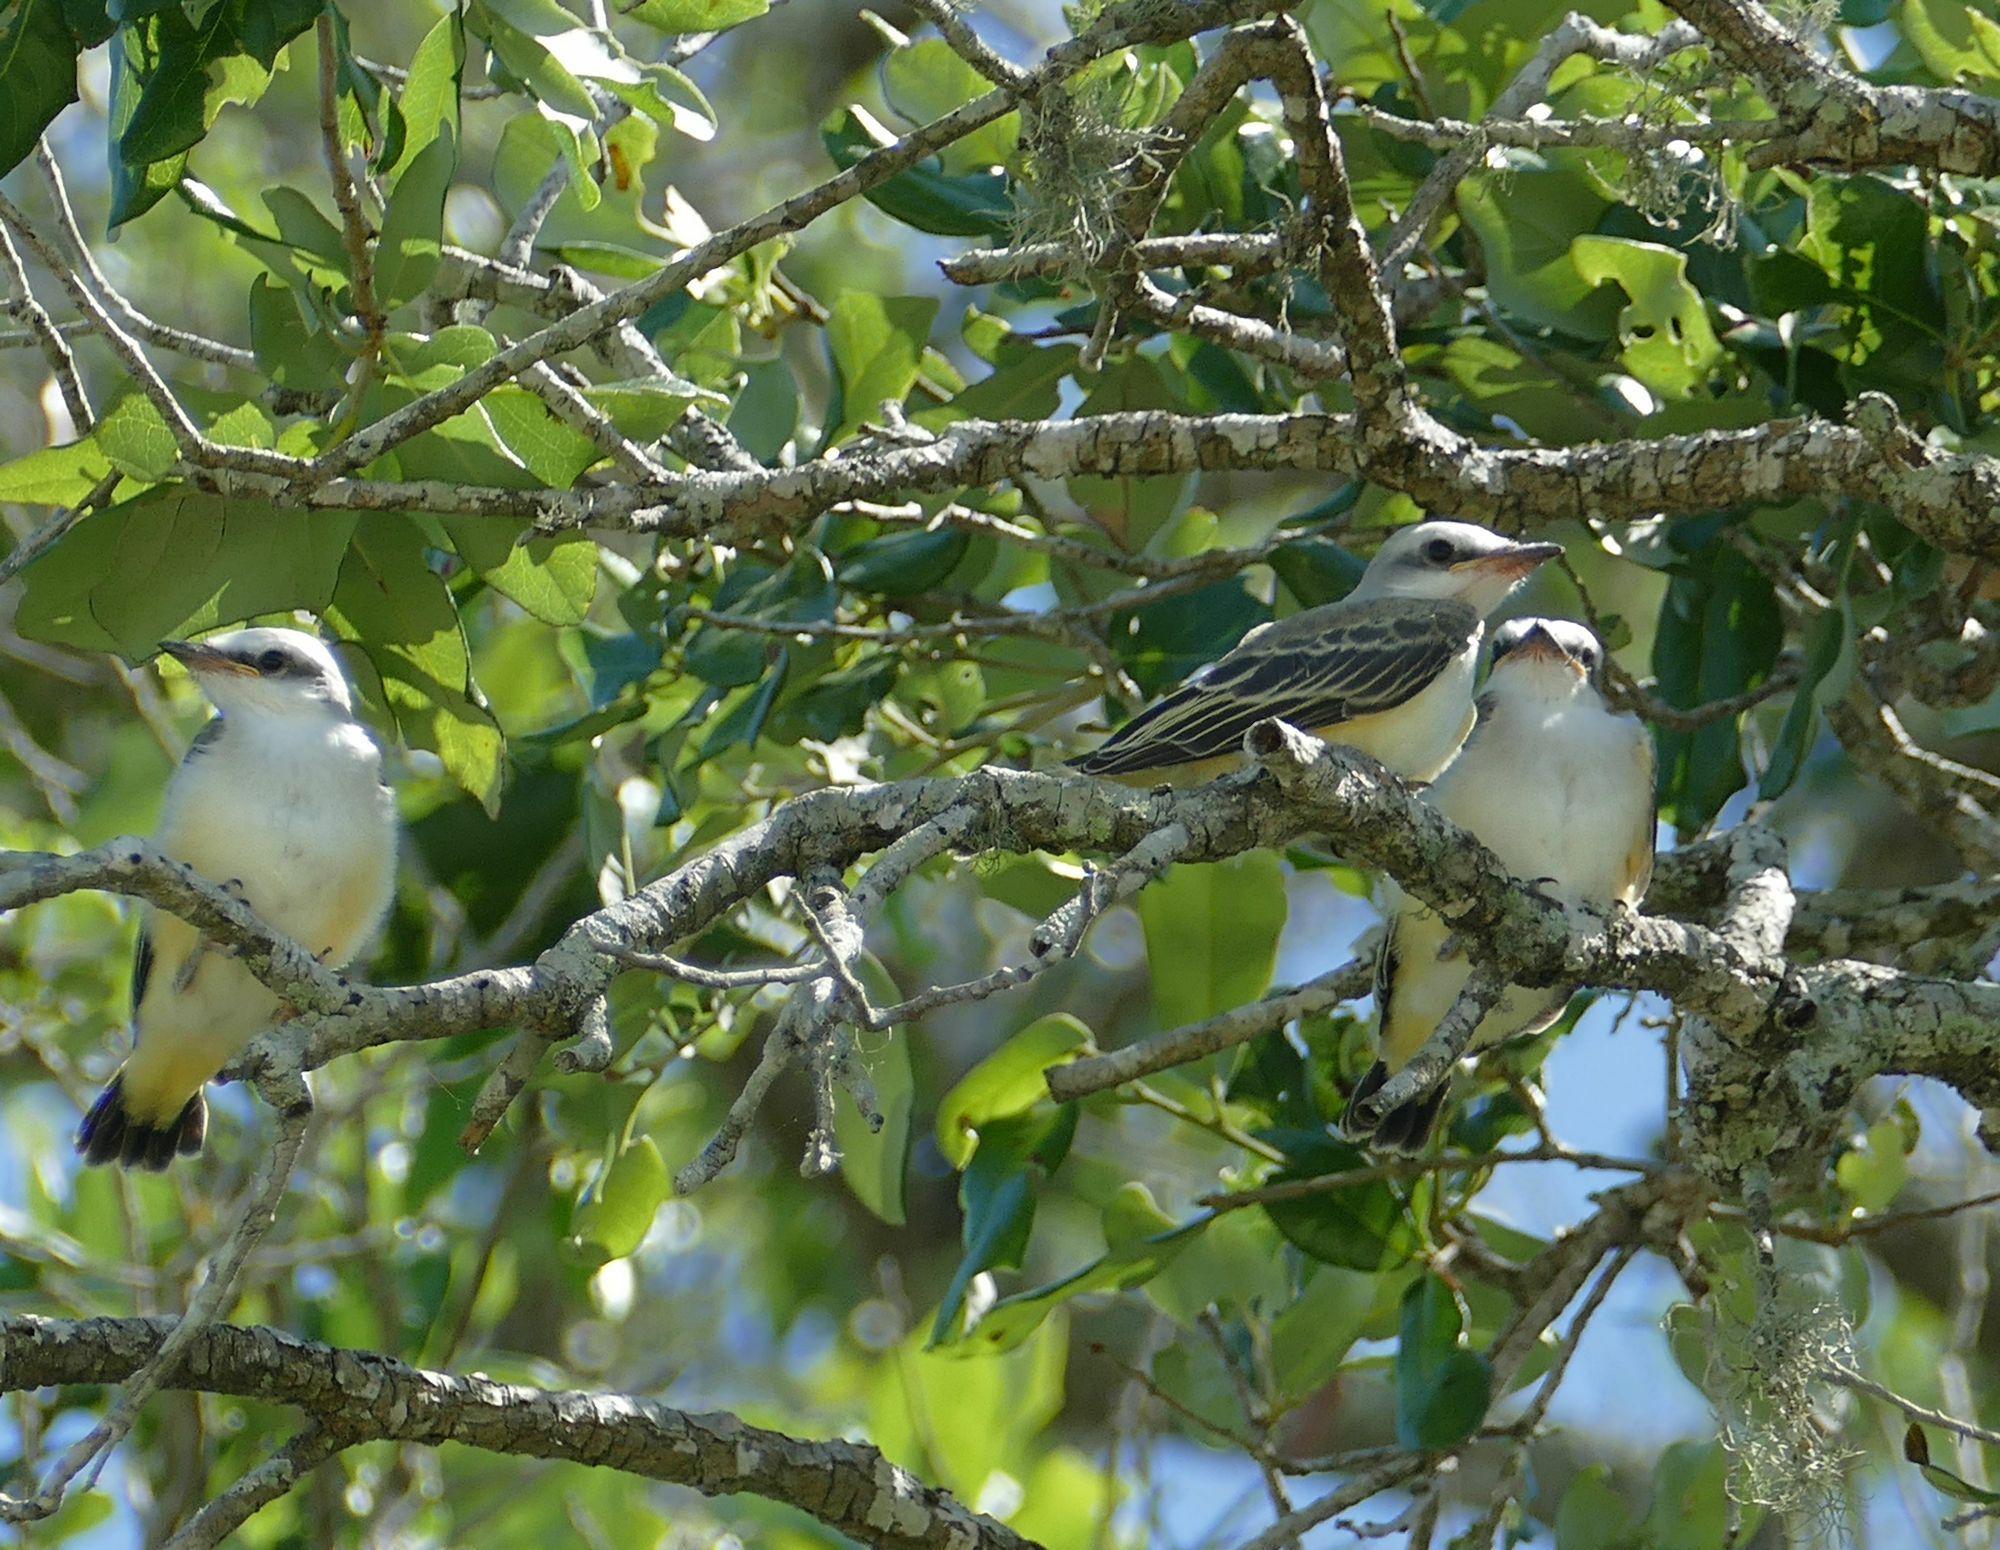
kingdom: Animalia
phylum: Chordata
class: Aves
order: Passeriformes
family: Tyrannidae
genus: Tyrannus
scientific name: Tyrannus forficatus
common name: Scissor-tailed flycatcher
